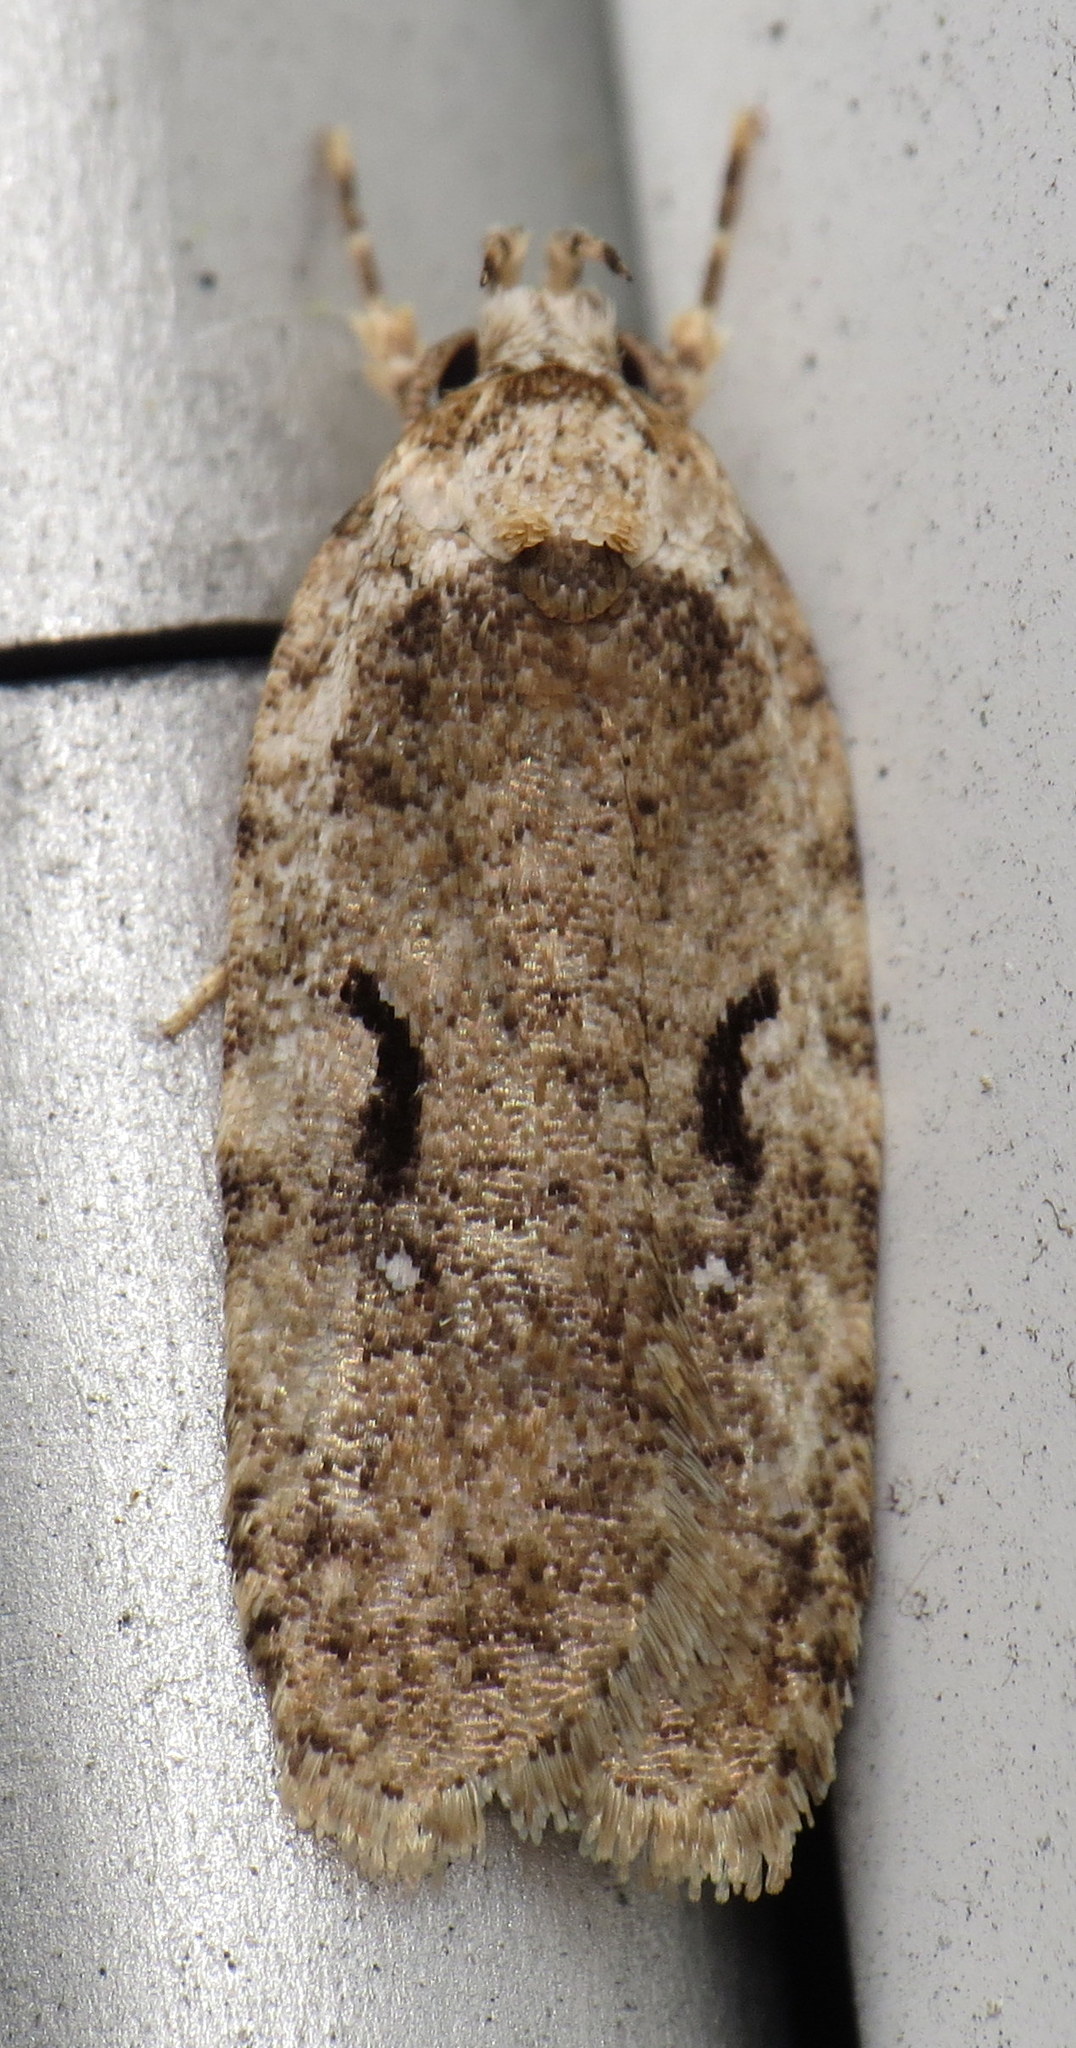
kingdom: Animalia
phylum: Arthropoda
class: Insecta
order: Lepidoptera
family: Depressariidae
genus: Agonopterix
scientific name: Agonopterix curvilineella
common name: Curved-line agonopterix moth
